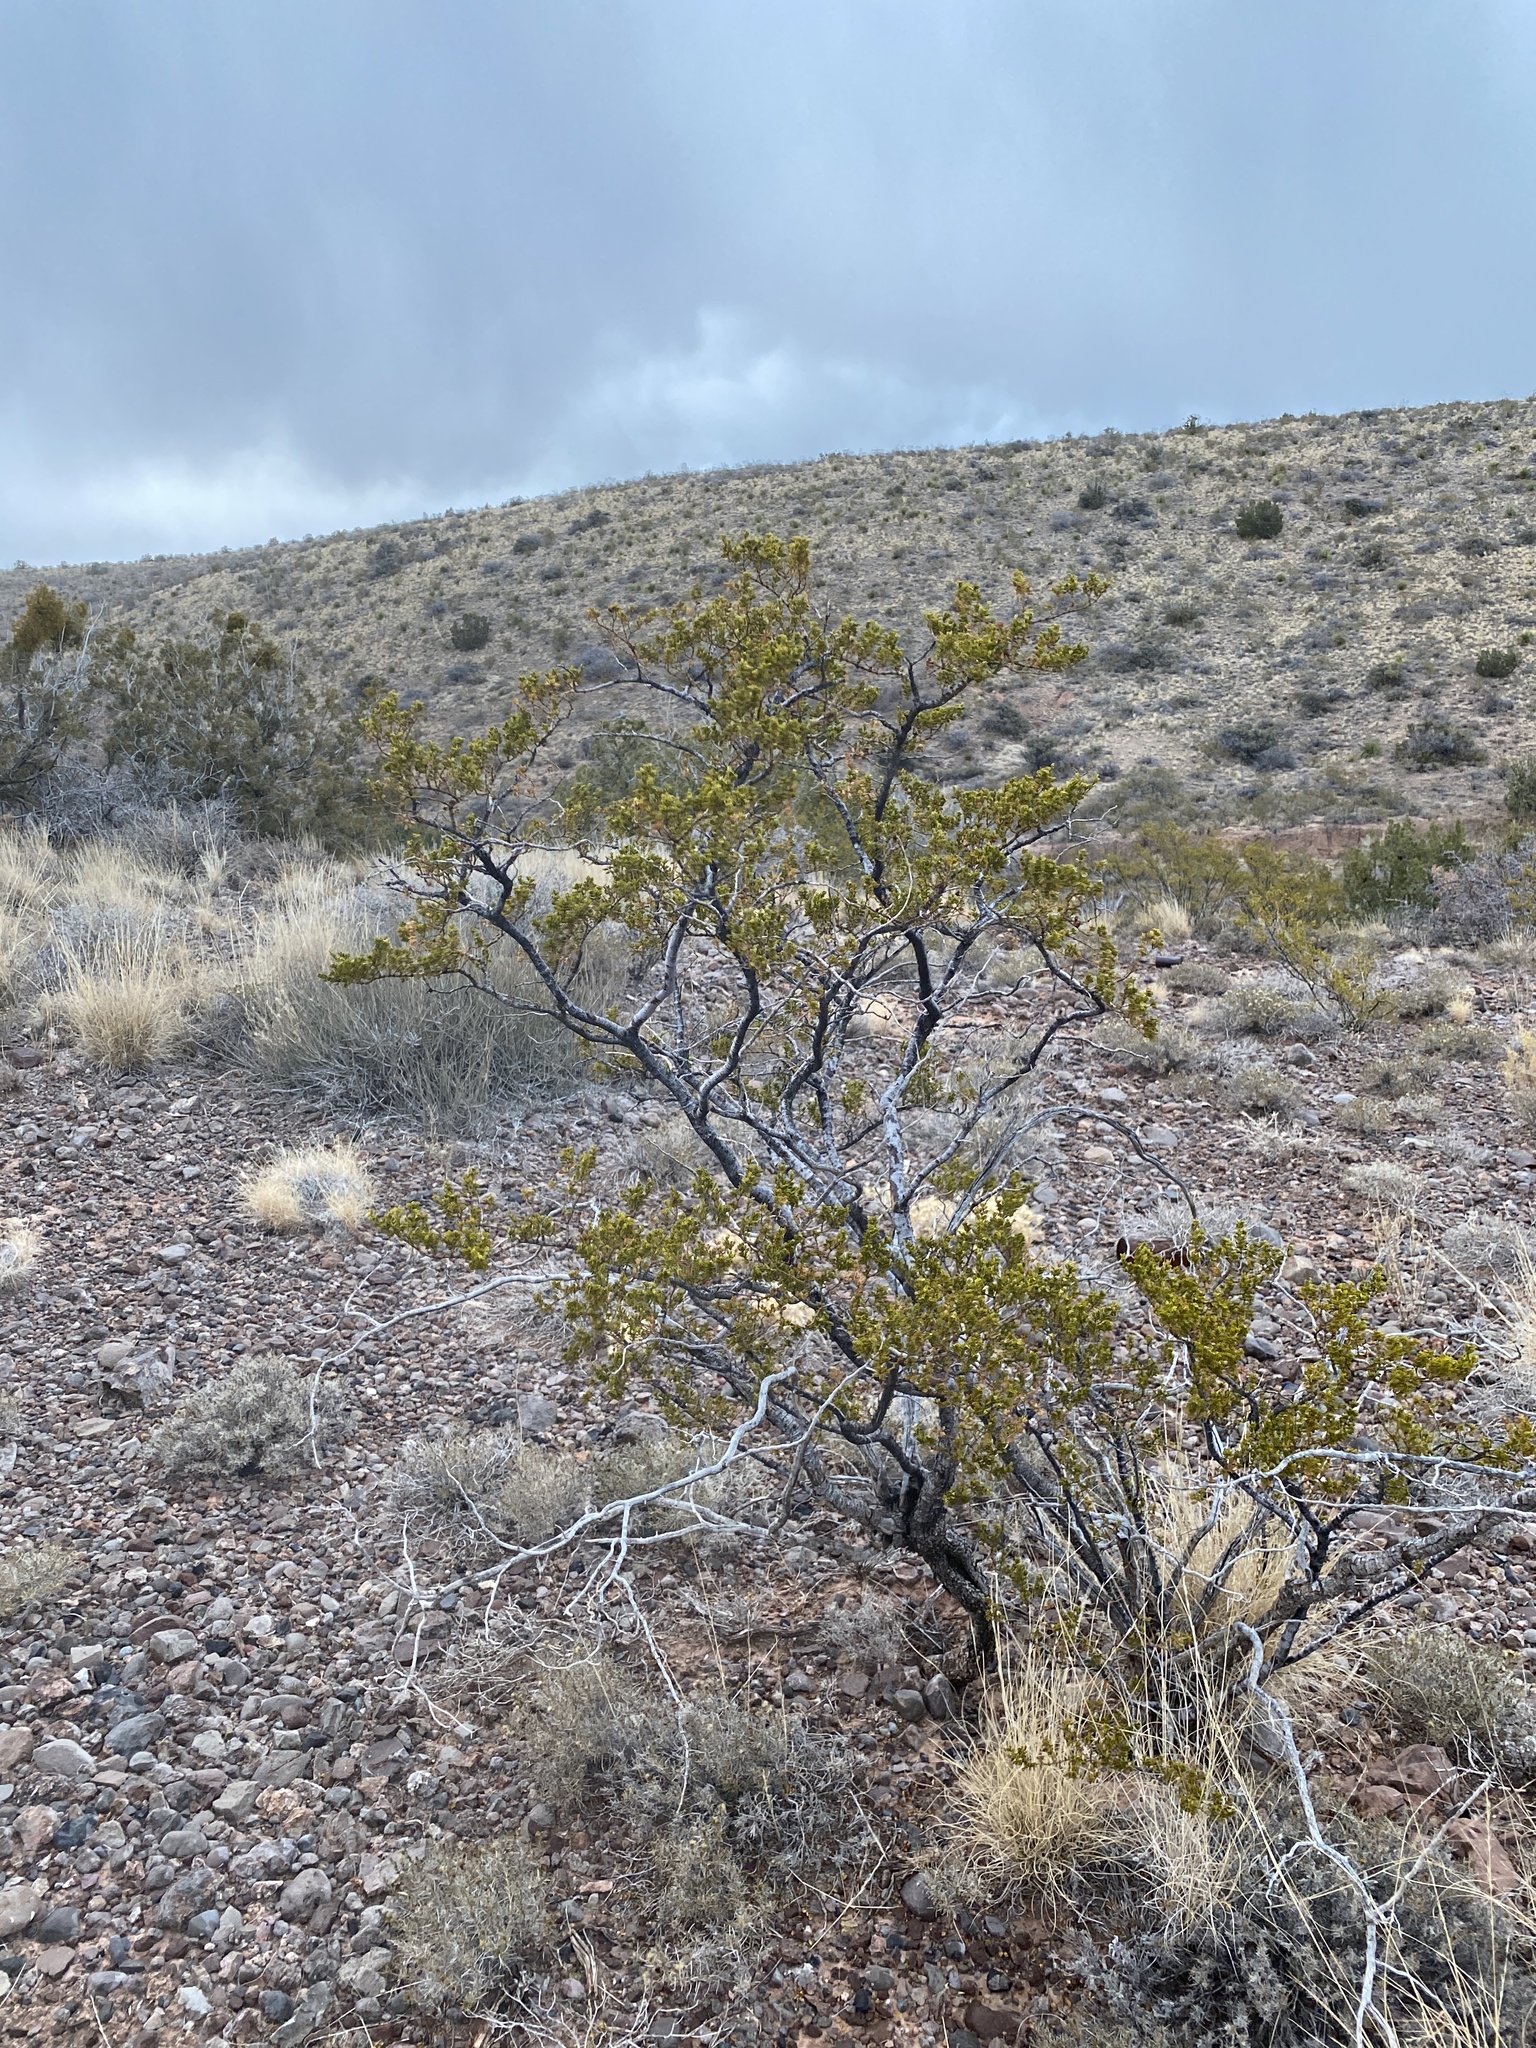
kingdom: Plantae
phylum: Tracheophyta
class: Magnoliopsida
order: Zygophyllales
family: Zygophyllaceae
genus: Larrea
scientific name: Larrea tridentata
